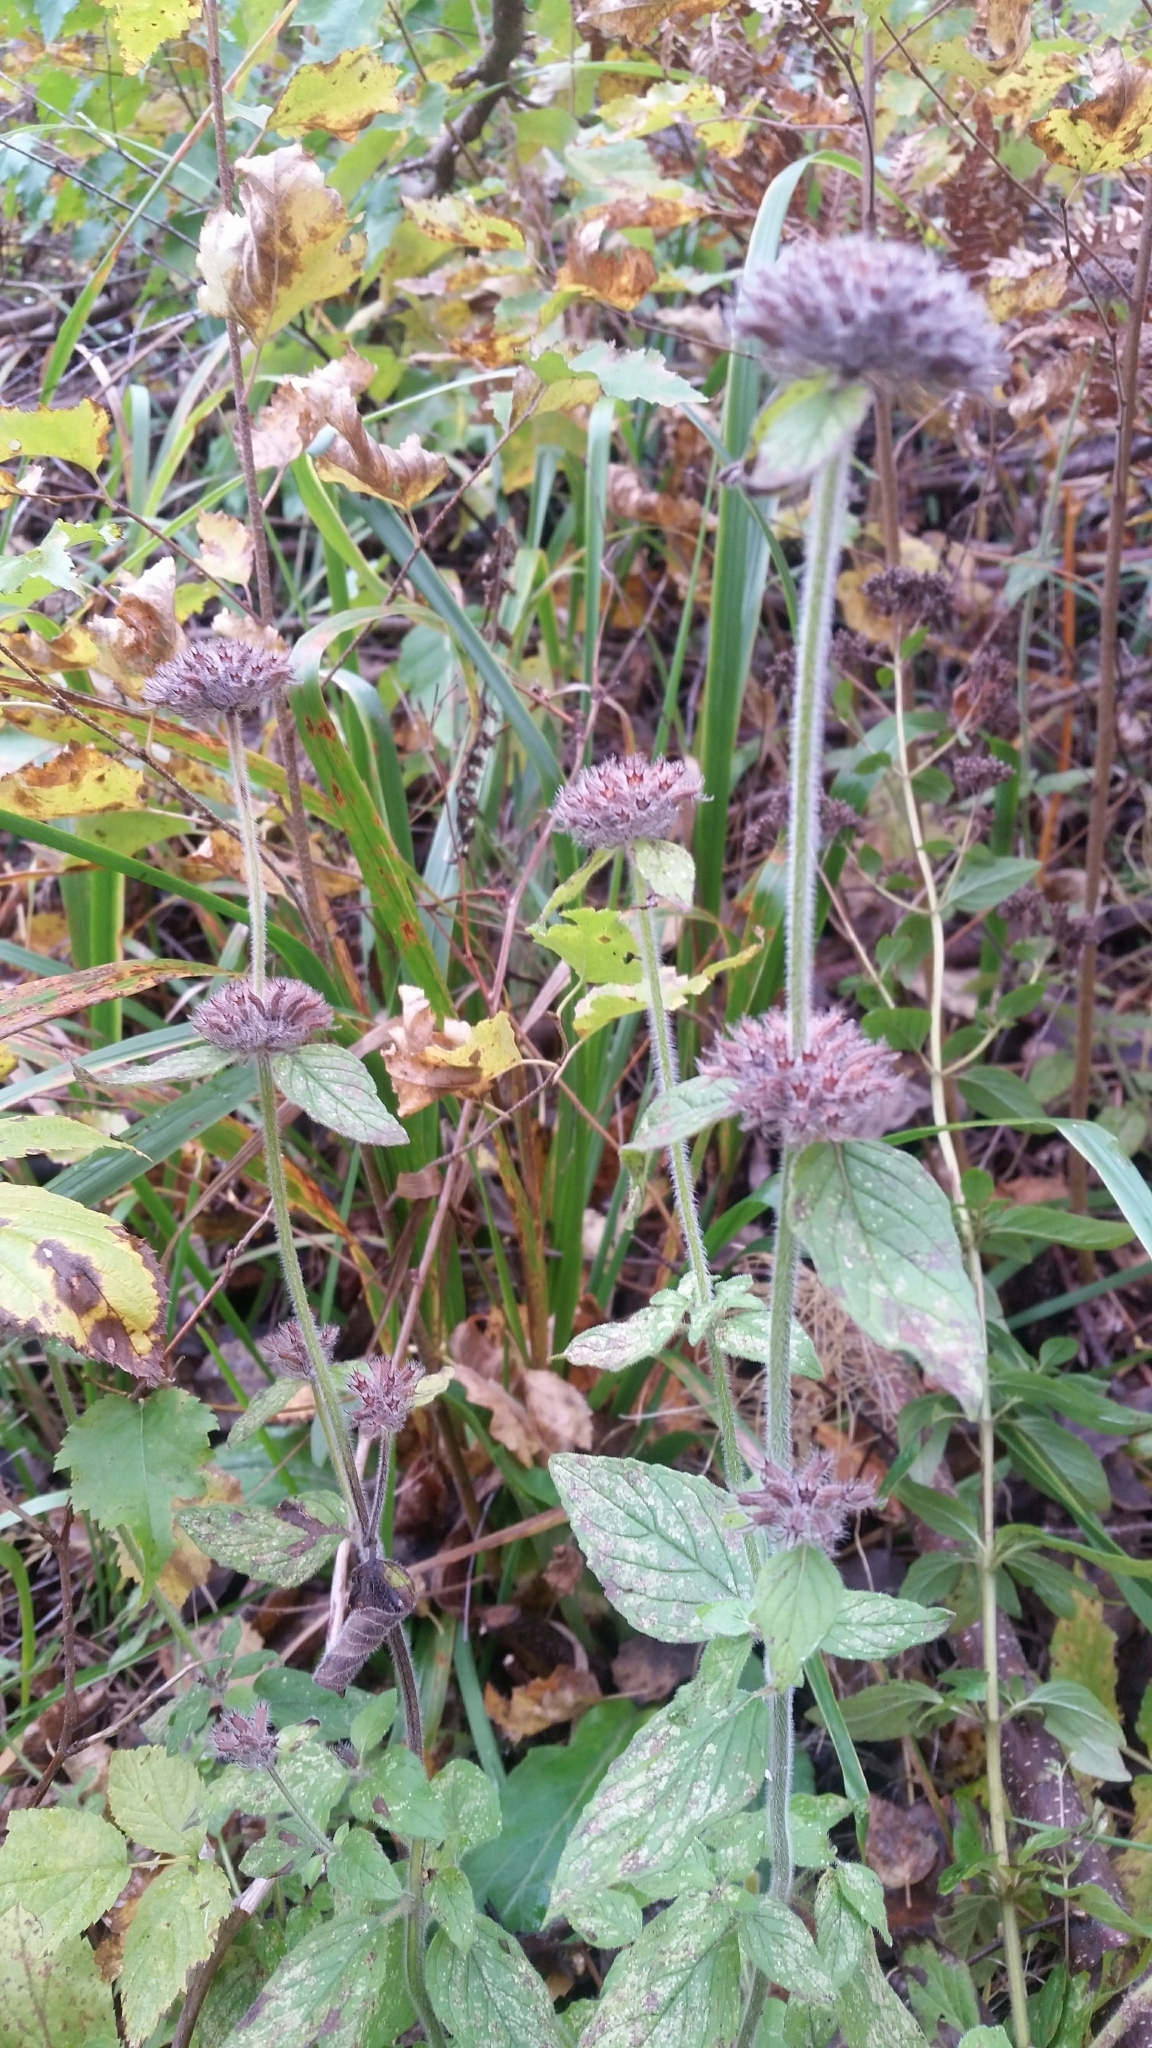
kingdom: Plantae
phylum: Tracheophyta
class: Magnoliopsida
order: Lamiales
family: Lamiaceae
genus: Clinopodium
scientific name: Clinopodium vulgare
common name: Wild basil
